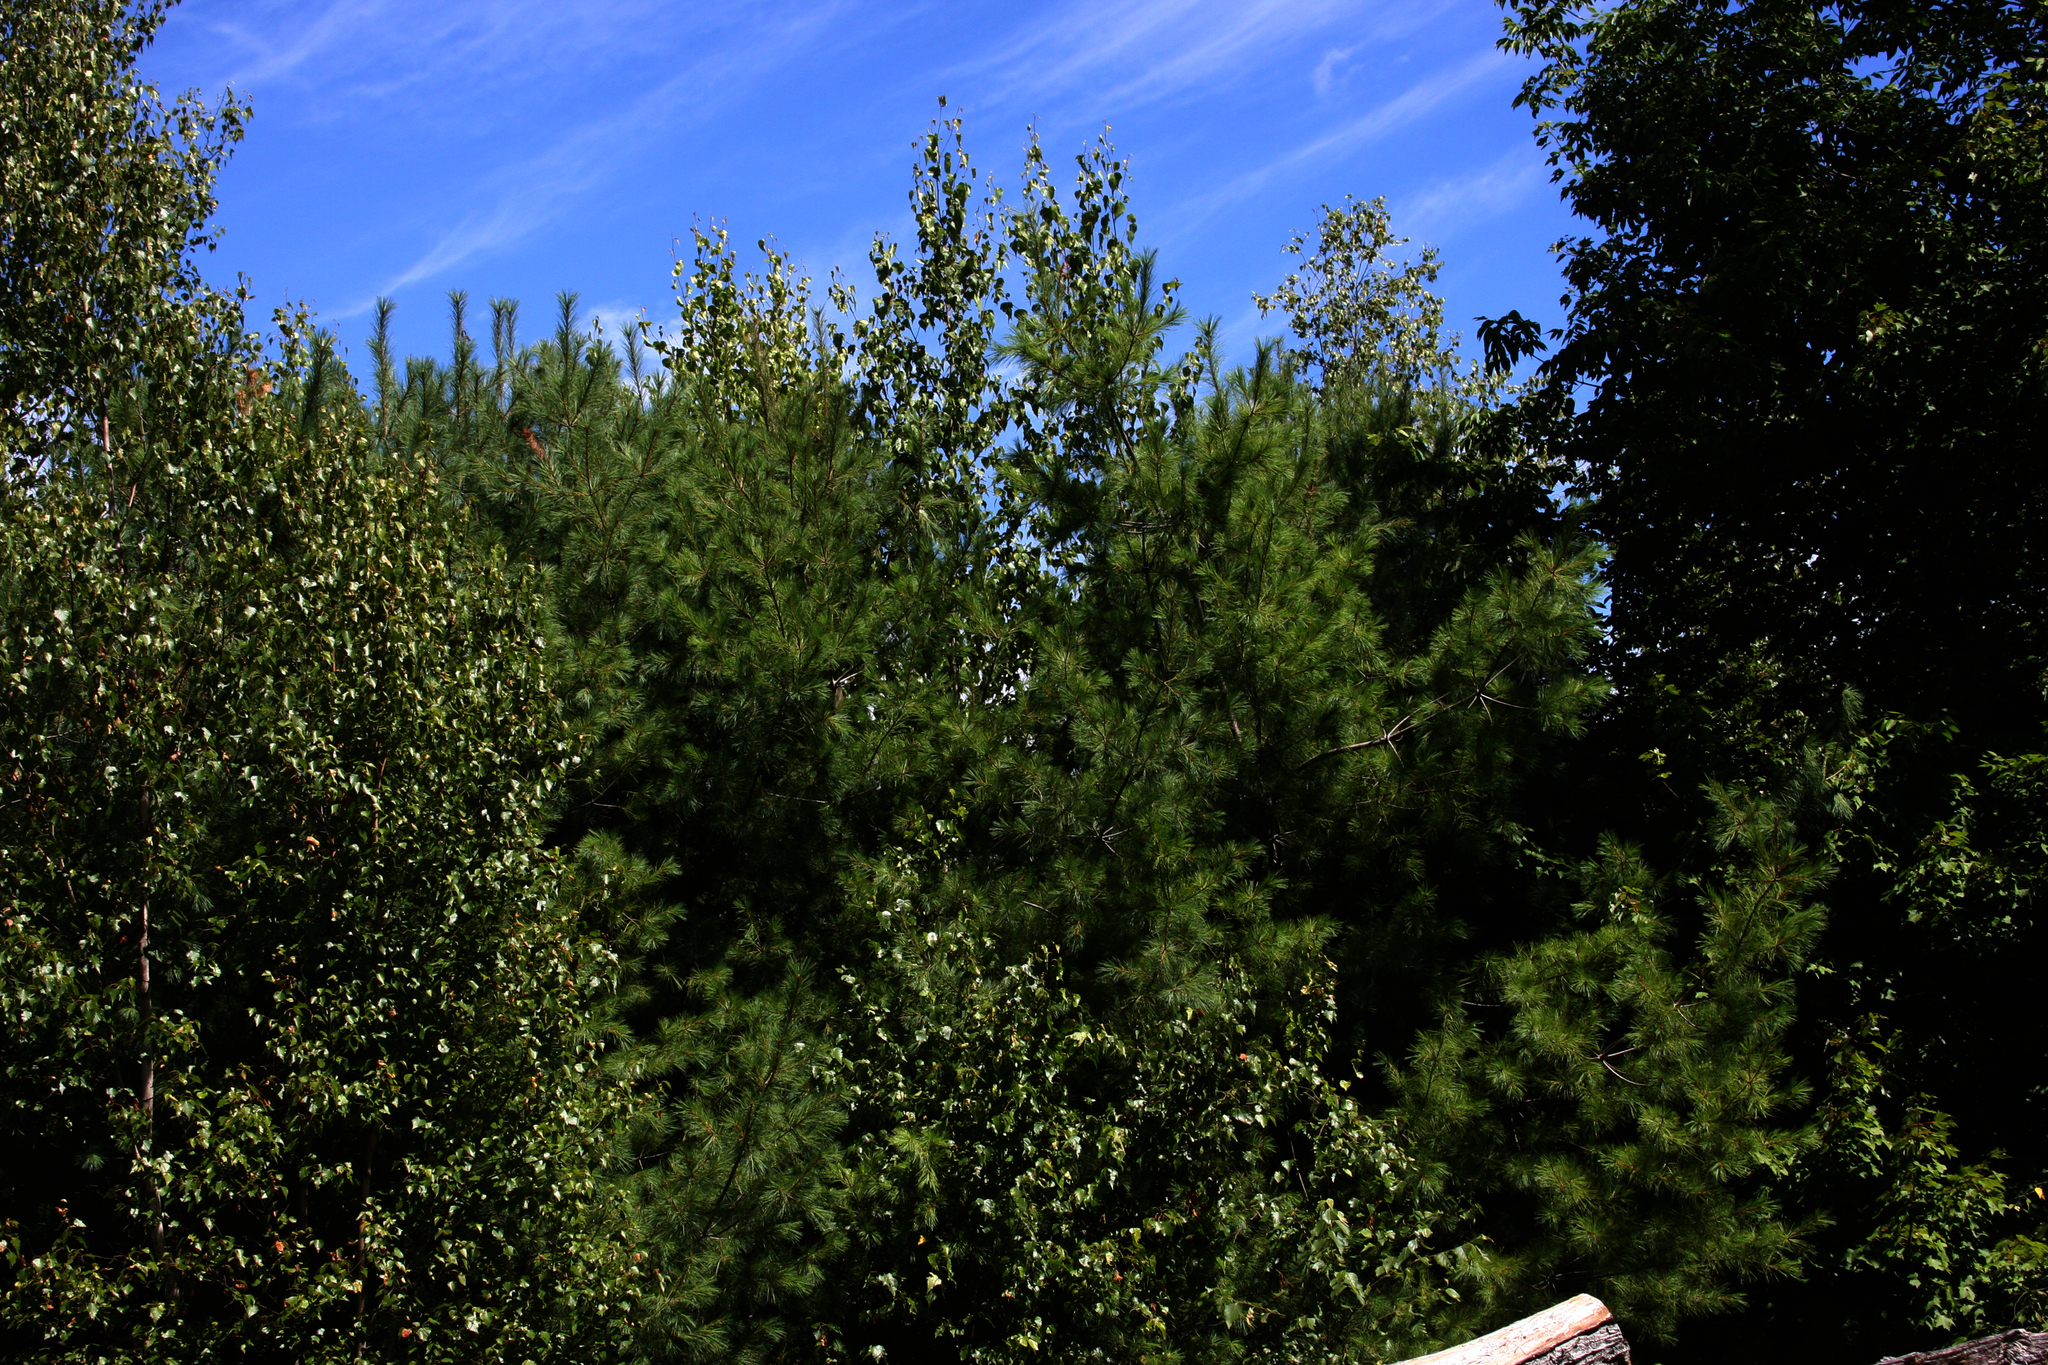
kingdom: Plantae
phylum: Tracheophyta
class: Pinopsida
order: Pinales
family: Pinaceae
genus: Pinus
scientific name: Pinus strobus
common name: Weymouth pine
